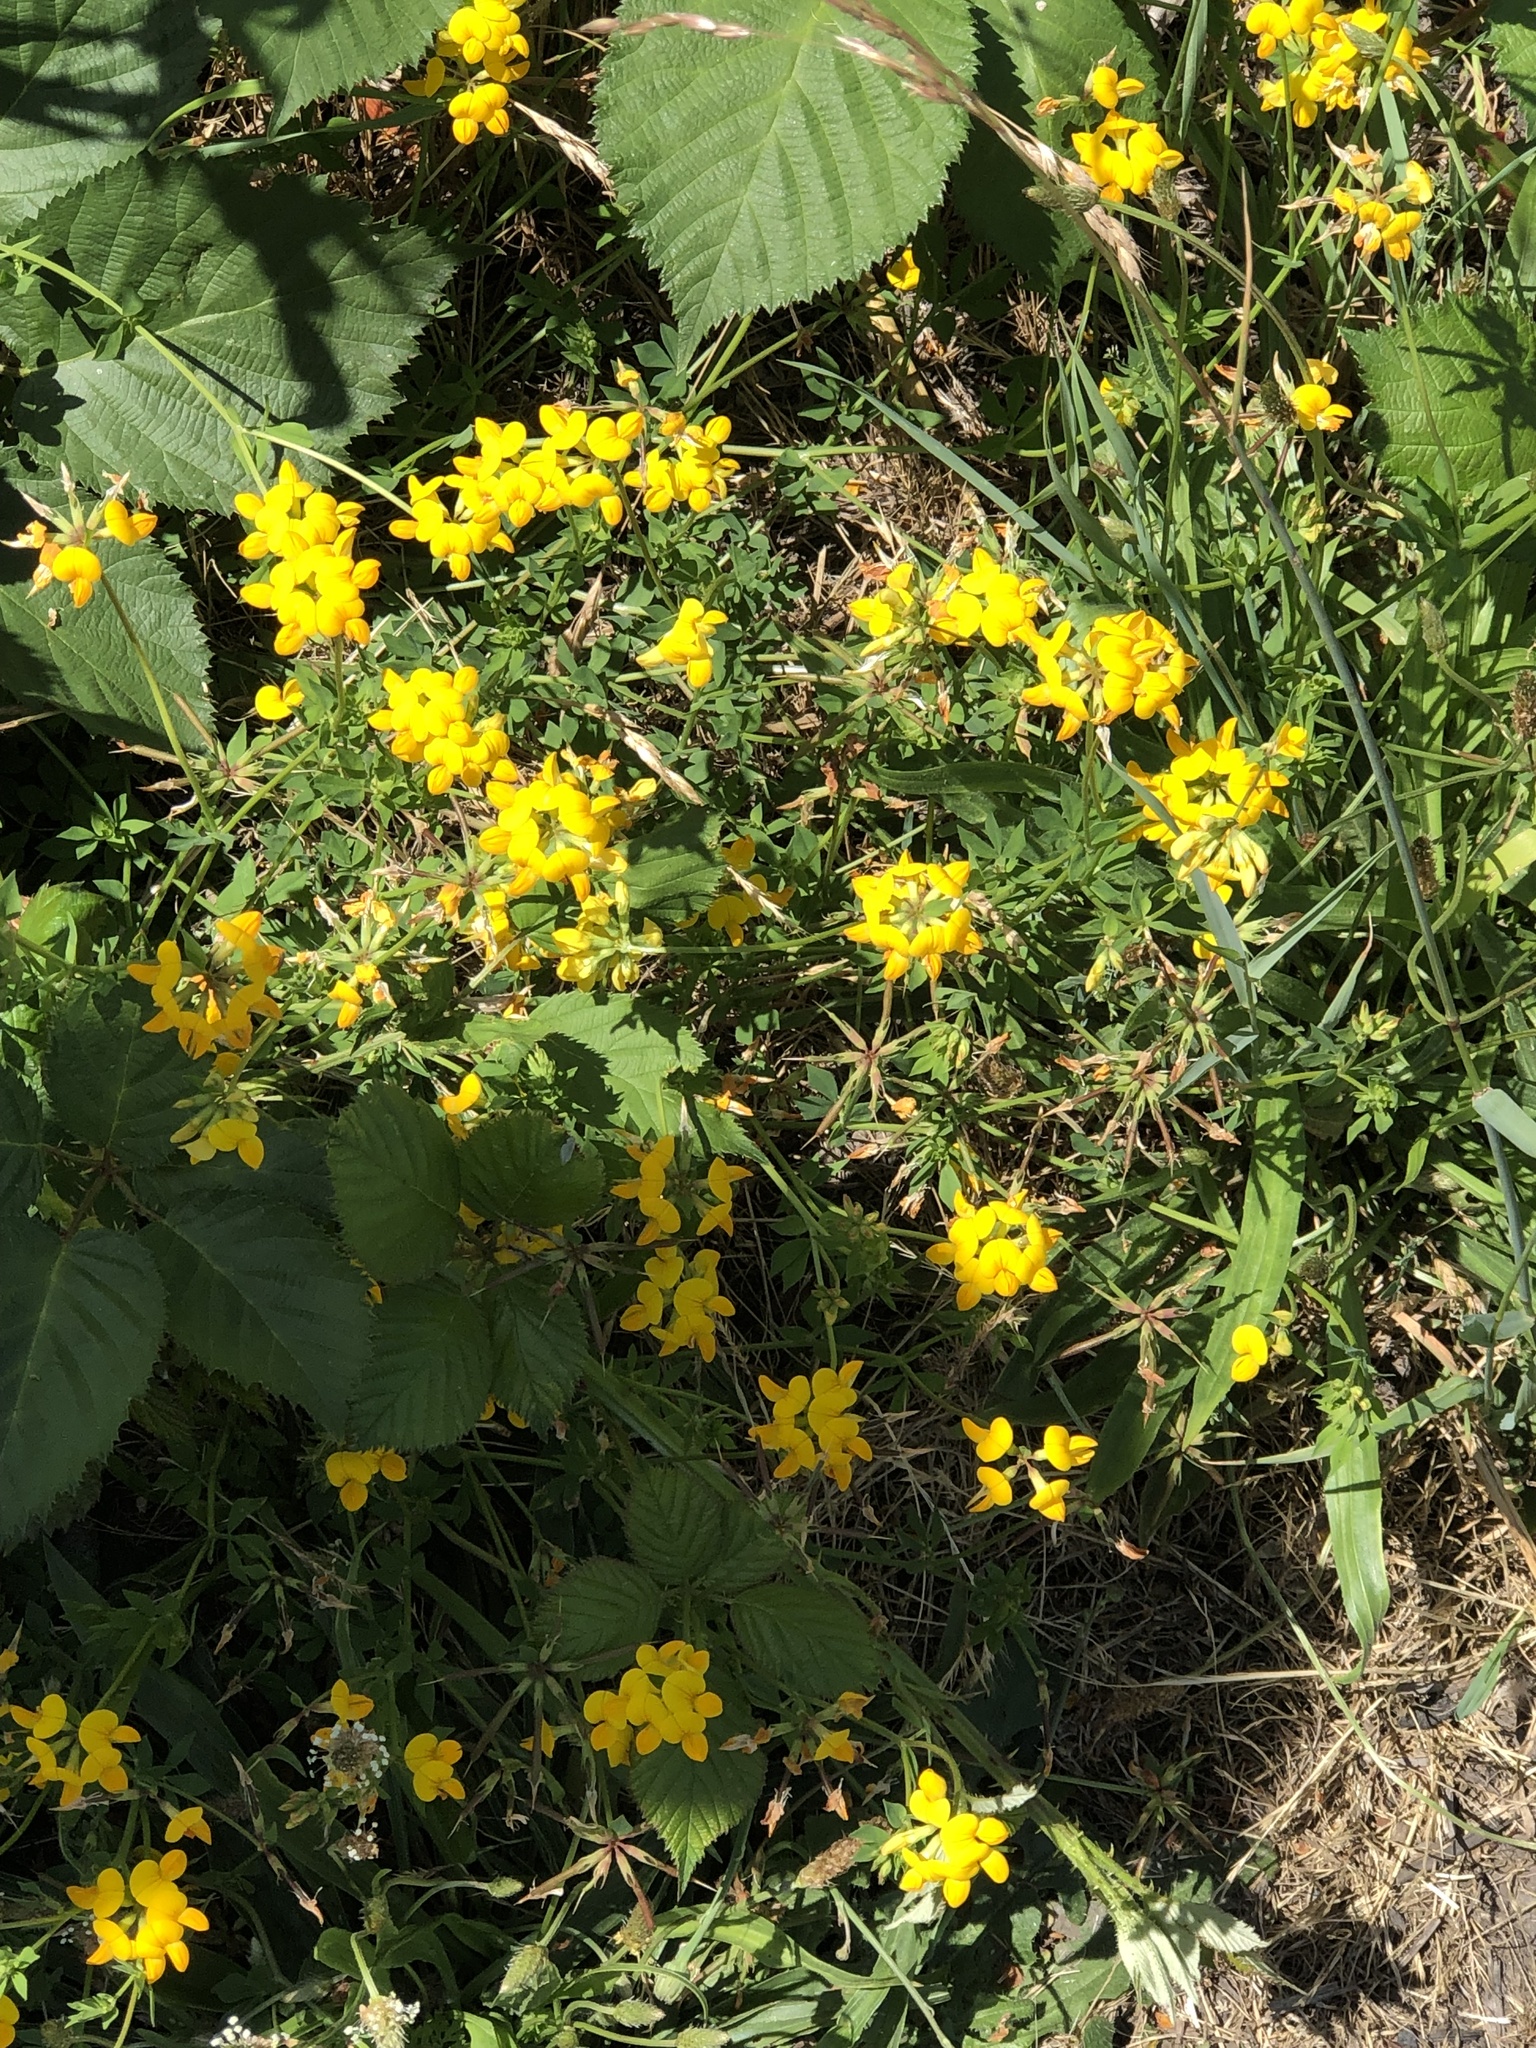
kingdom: Plantae
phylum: Tracheophyta
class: Magnoliopsida
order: Fabales
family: Fabaceae
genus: Lotus
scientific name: Lotus corniculatus
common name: Common bird's-foot-trefoil
